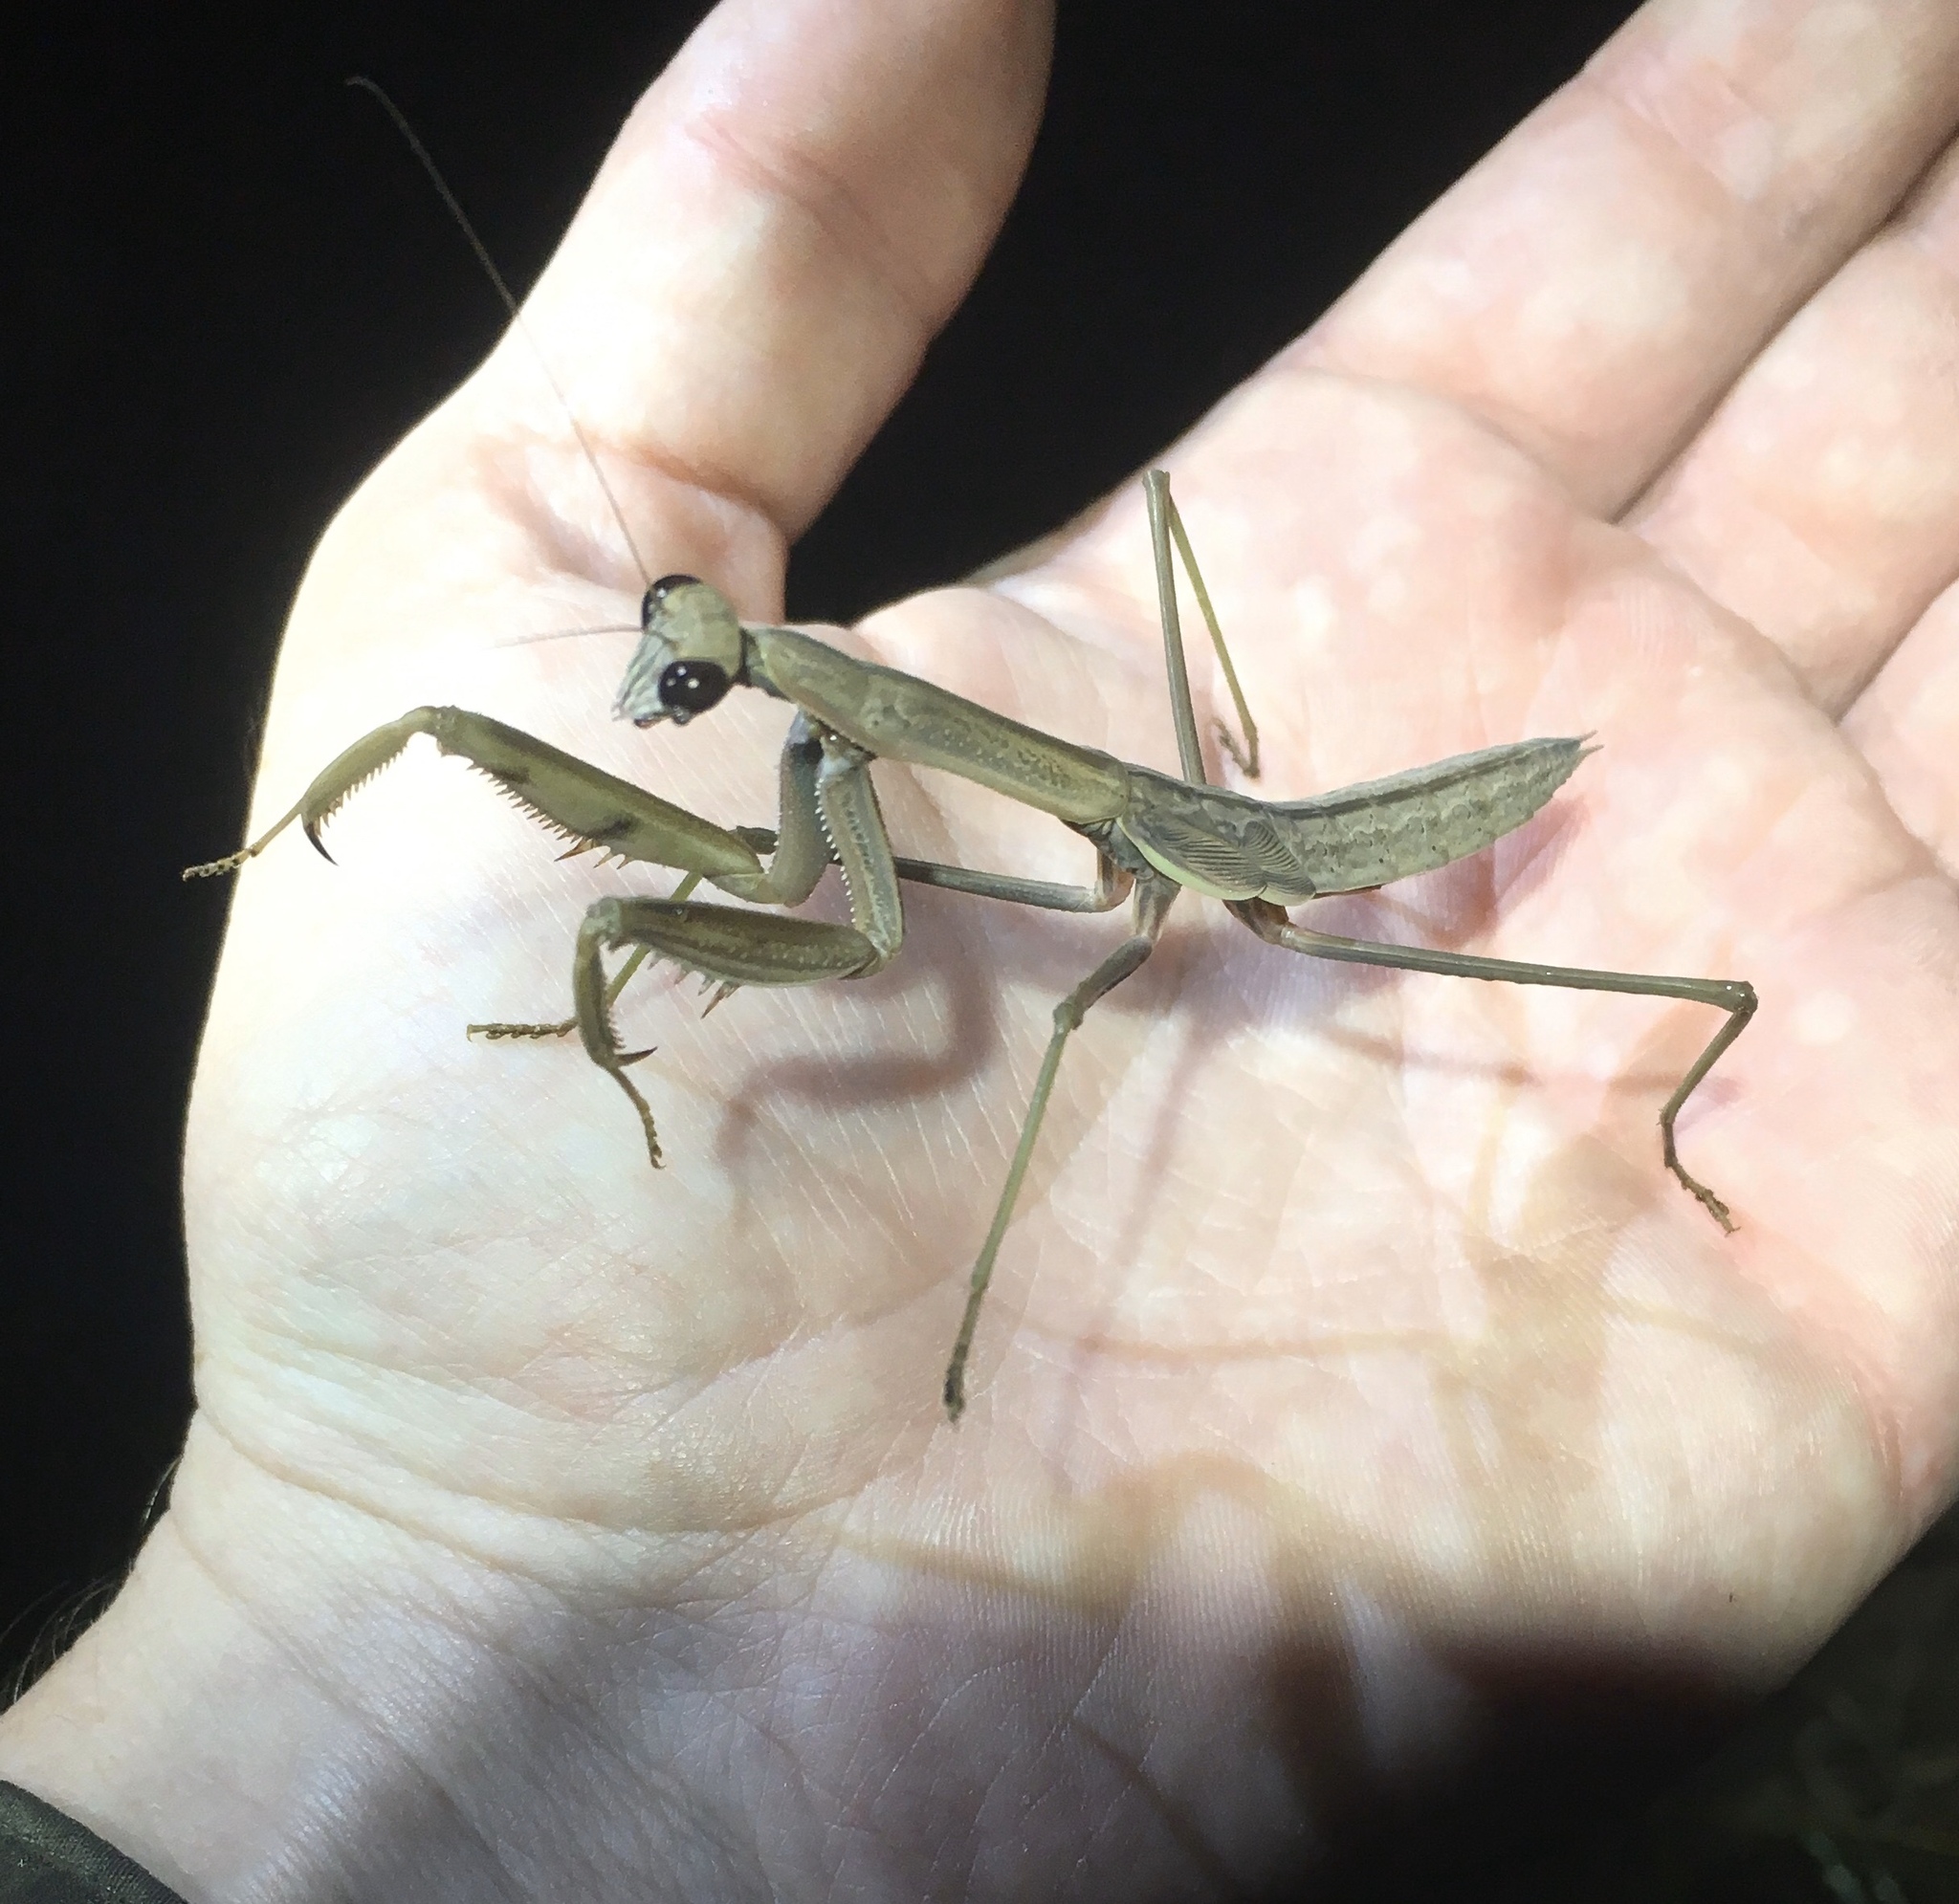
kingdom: Animalia
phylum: Arthropoda
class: Insecta
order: Mantodea
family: Mantidae
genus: Tenodera
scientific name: Tenodera sinensis
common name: Chinese mantis
